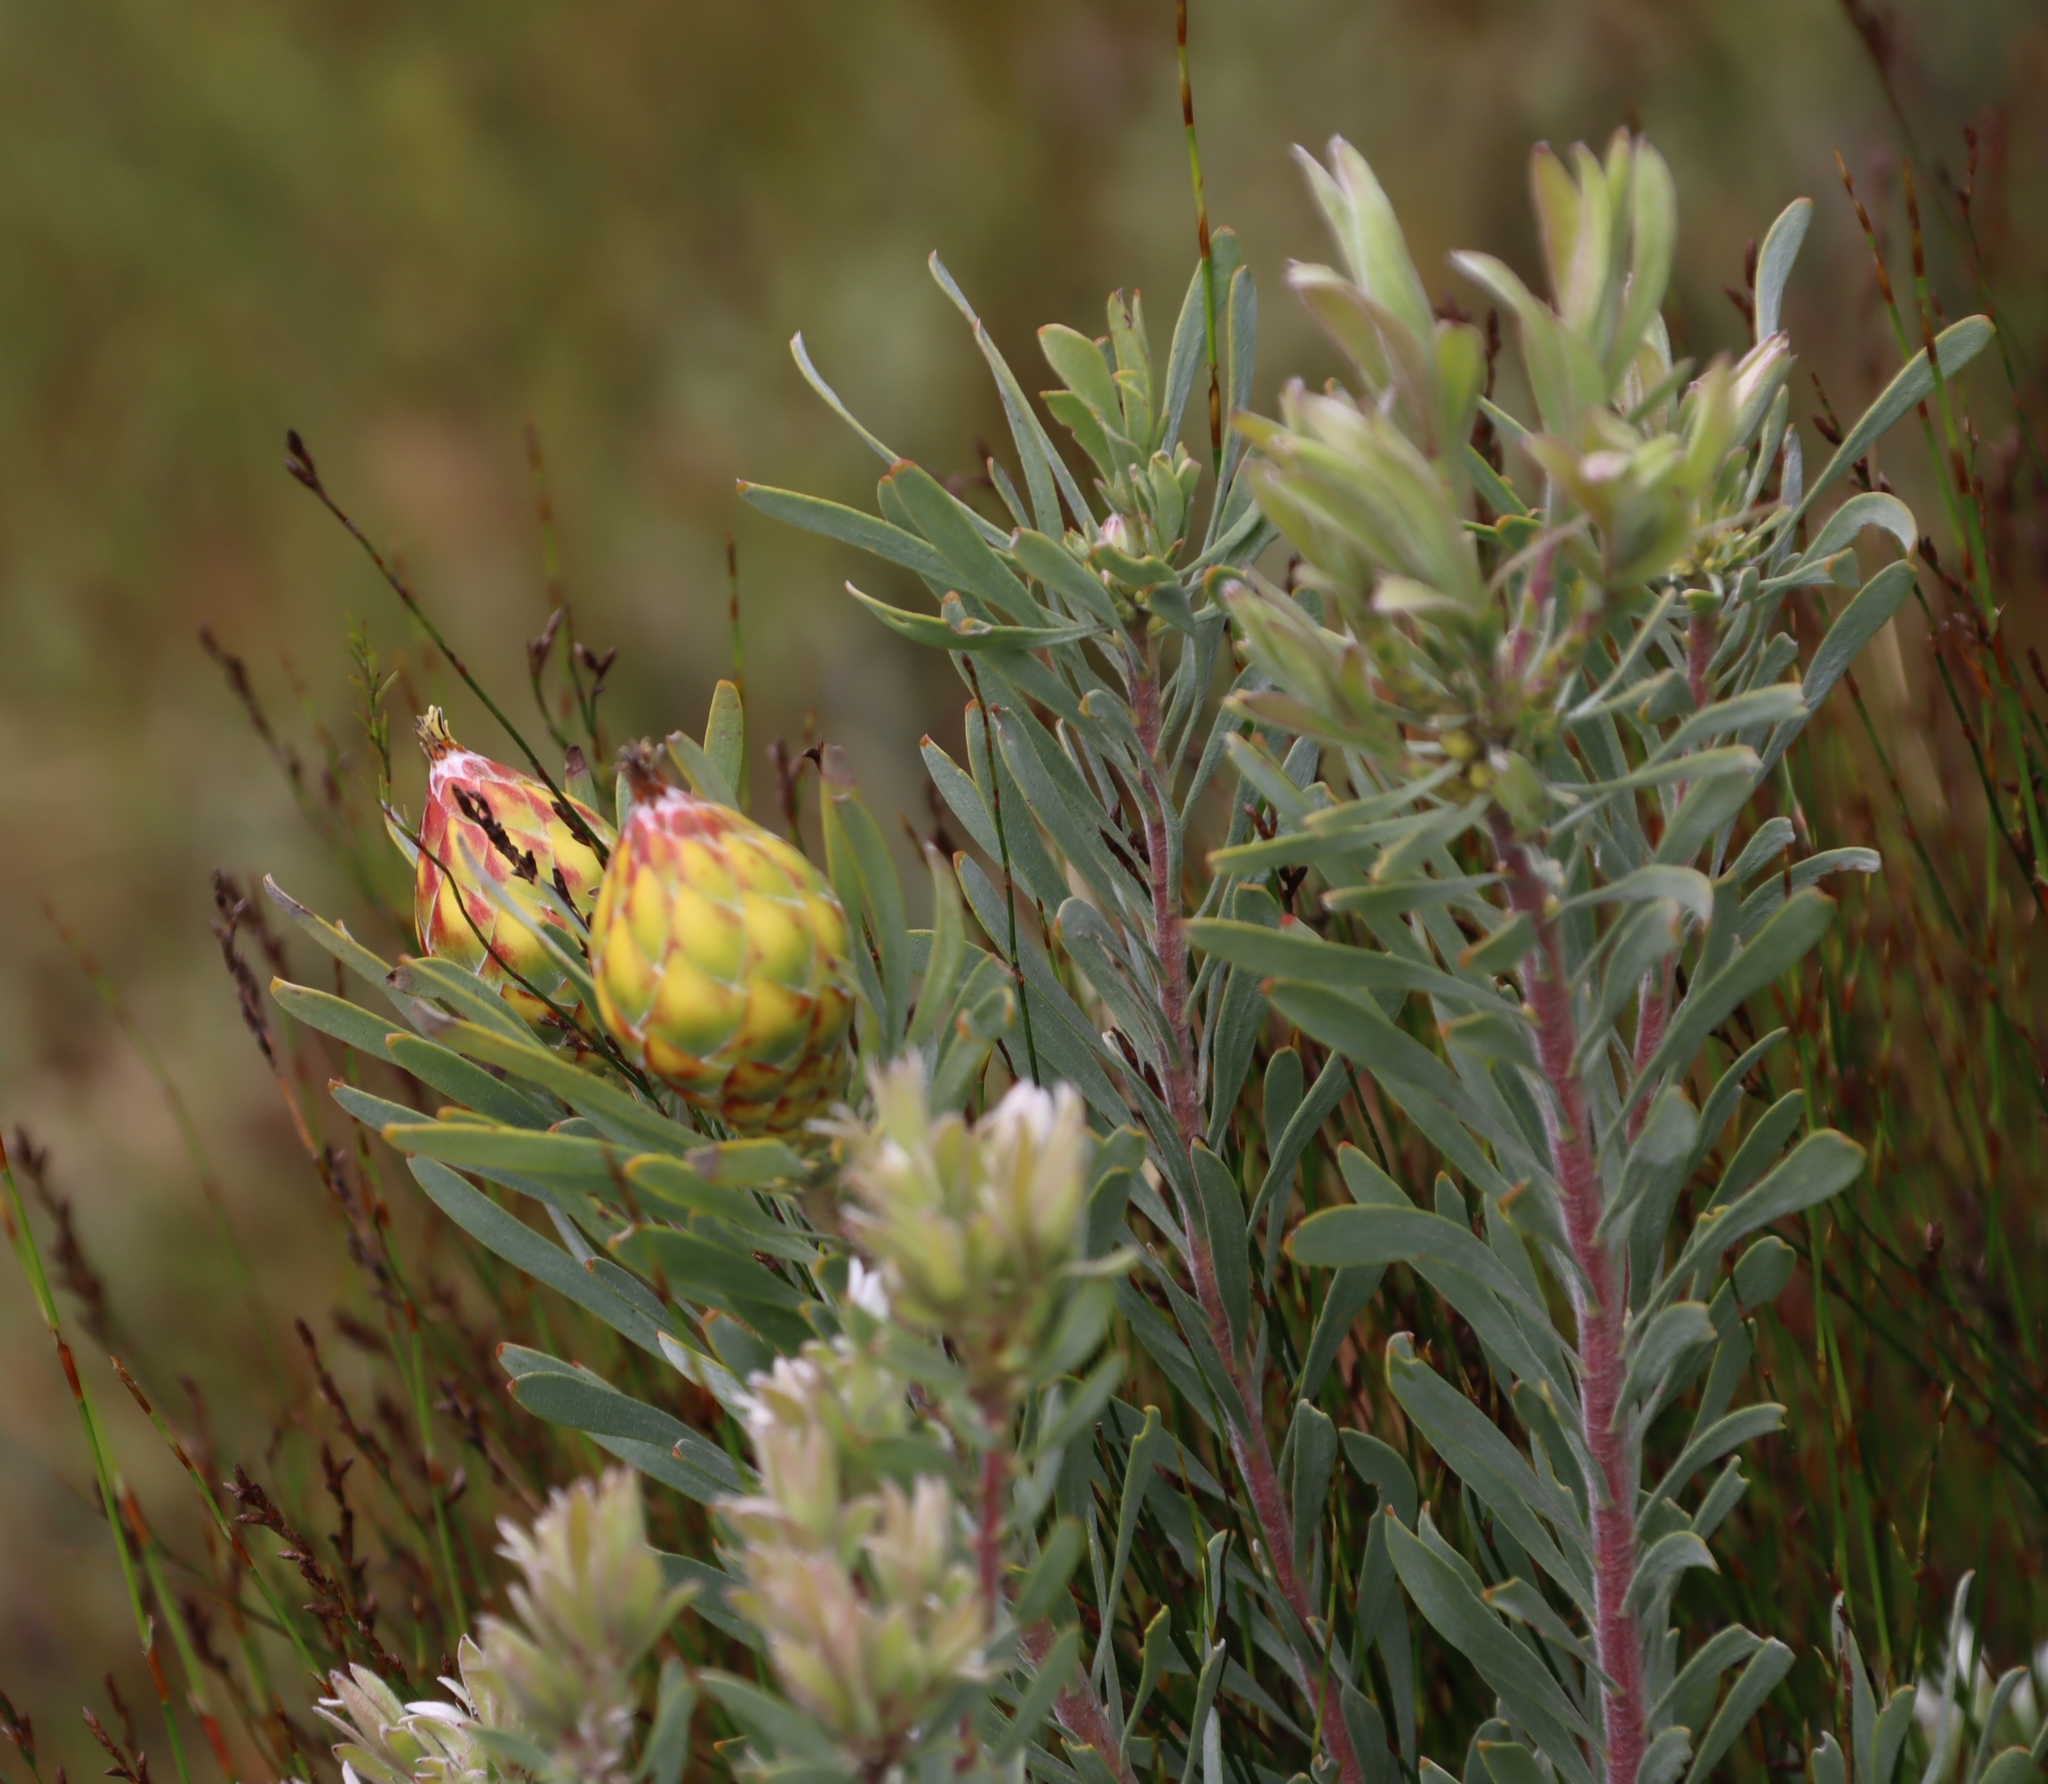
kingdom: Plantae
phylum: Tracheophyta
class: Magnoliopsida
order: Proteales
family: Proteaceae
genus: Leucadendron
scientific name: Leucadendron rubrum
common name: Spinning top
